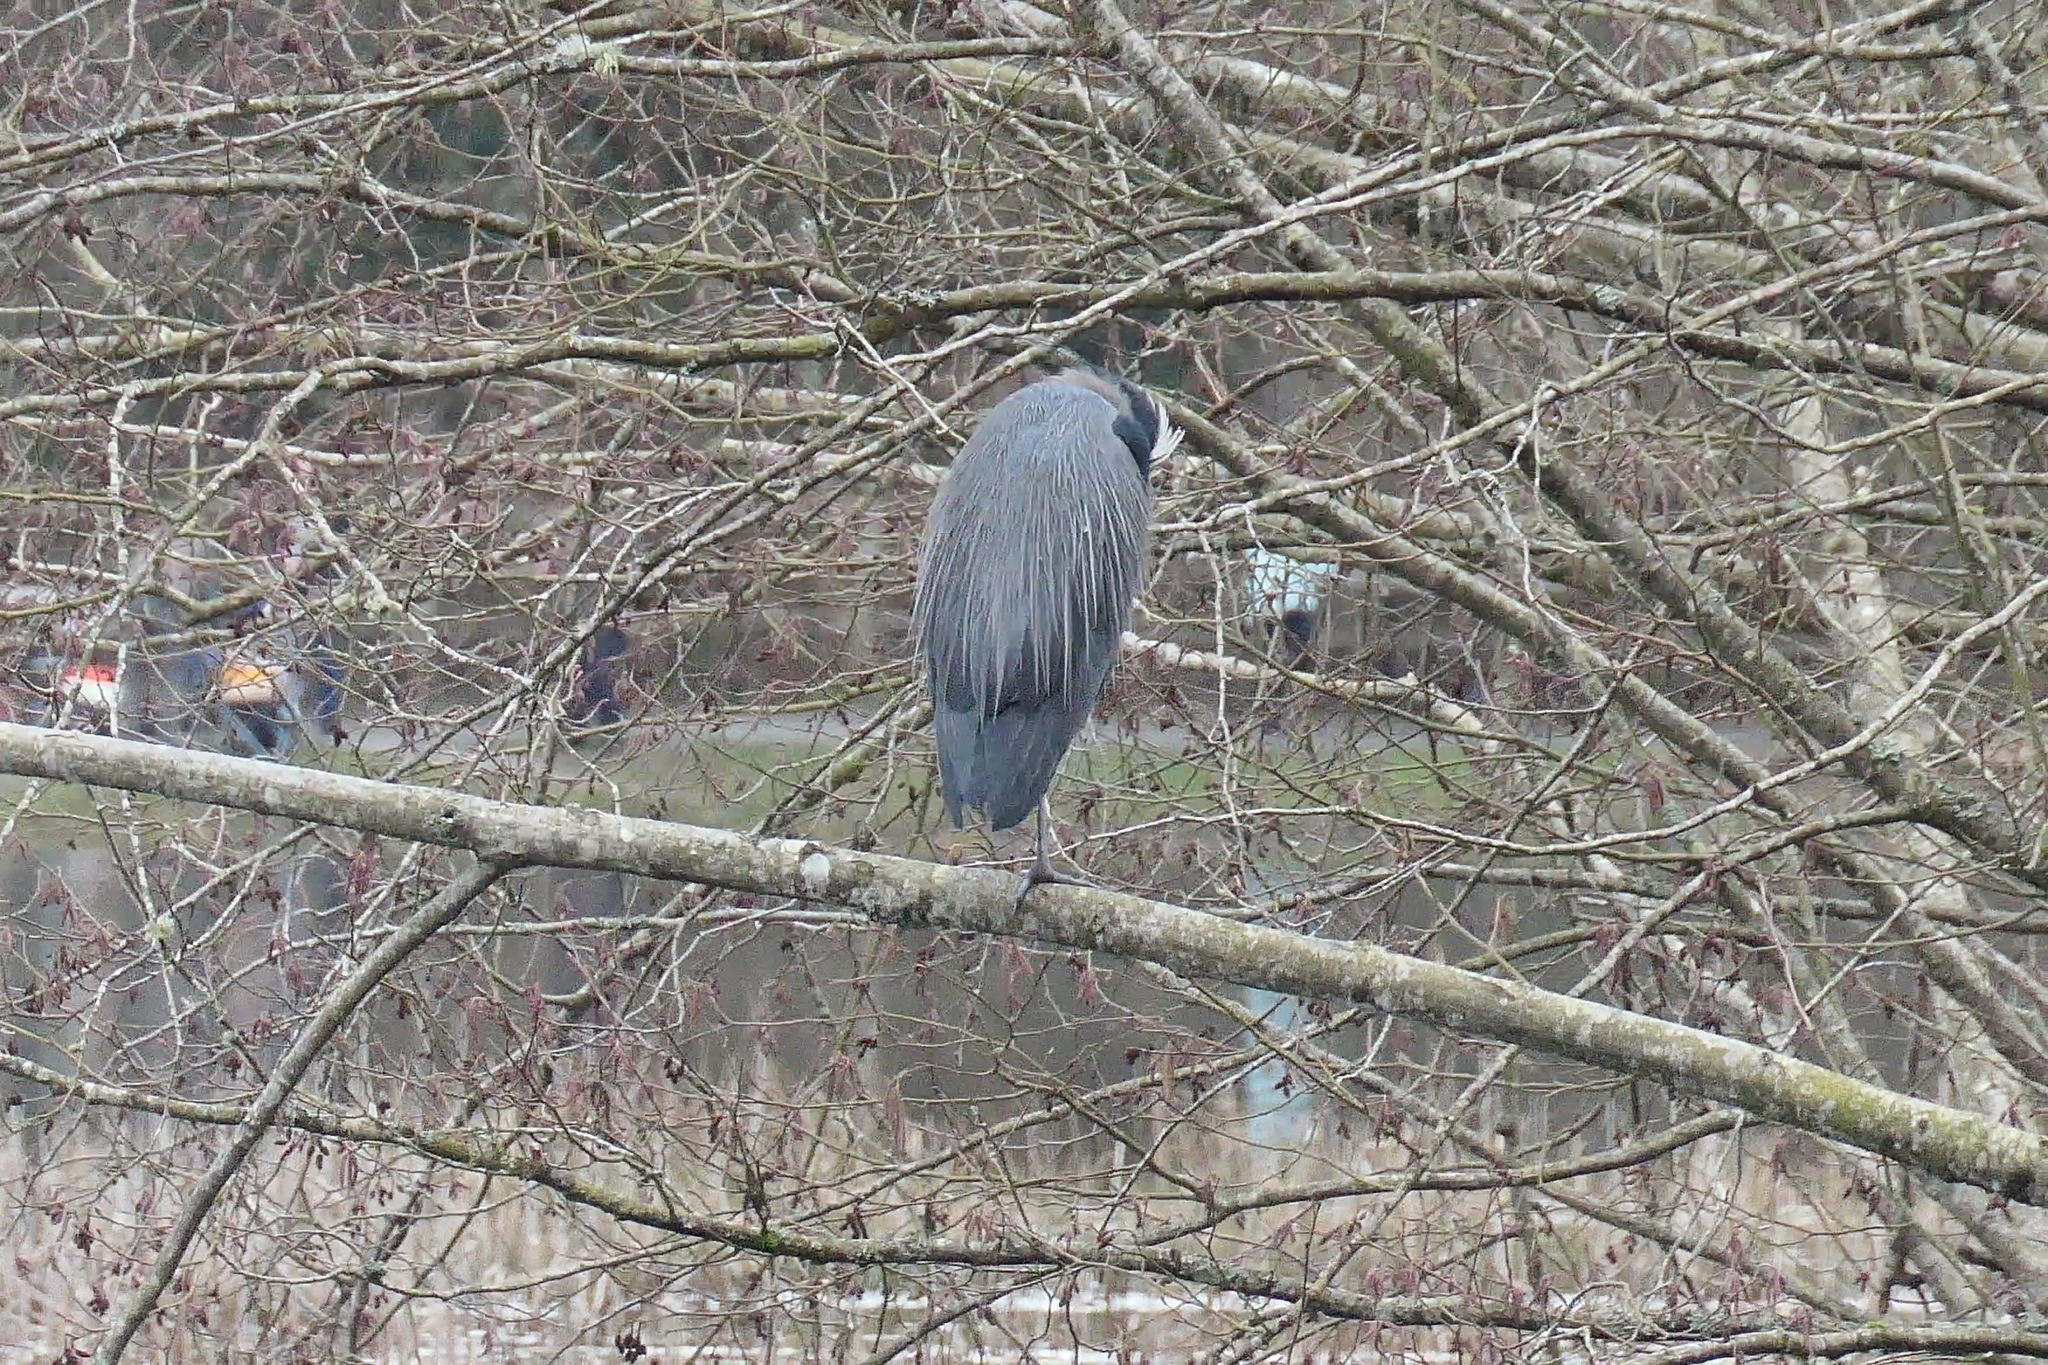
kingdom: Animalia
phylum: Chordata
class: Aves
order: Pelecaniformes
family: Ardeidae
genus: Ardea
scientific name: Ardea herodias
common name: Great blue heron
